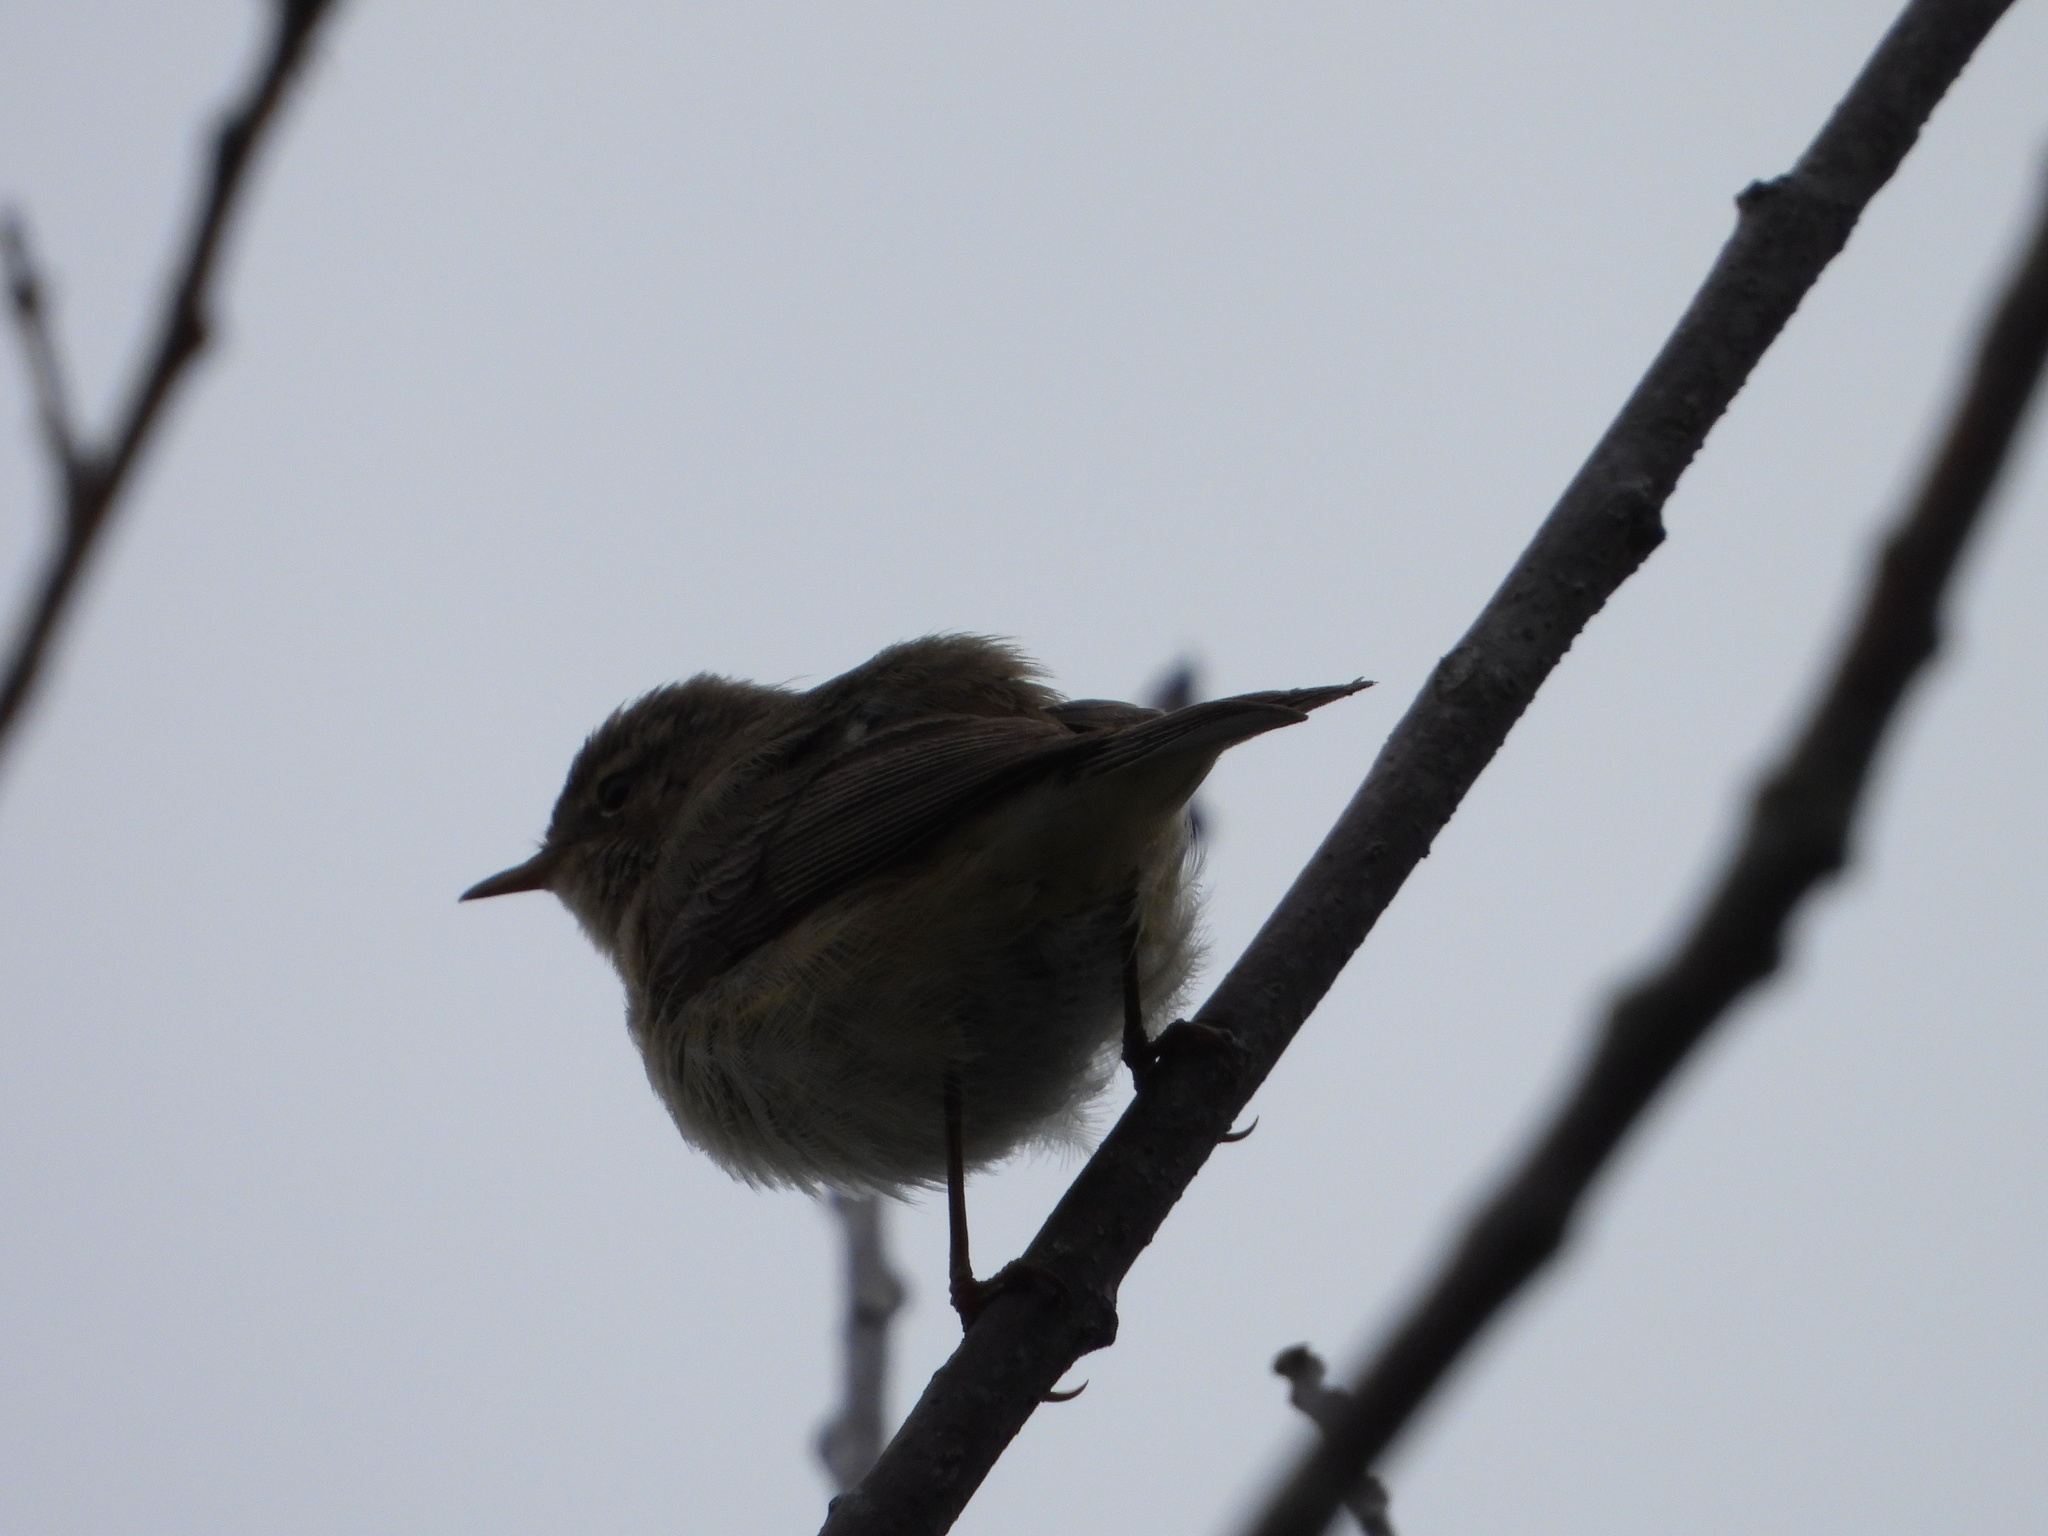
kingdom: Animalia
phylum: Chordata
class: Aves
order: Passeriformes
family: Phylloscopidae
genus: Phylloscopus
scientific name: Phylloscopus collybita
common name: Common chiffchaff
